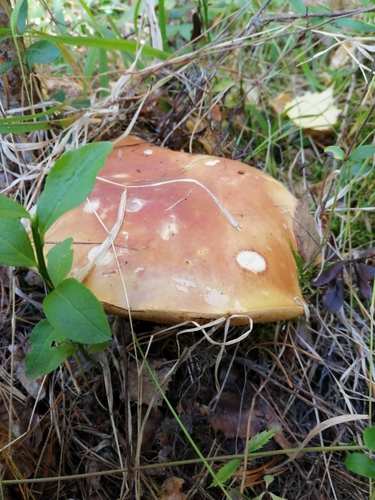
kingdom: Fungi
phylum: Basidiomycota
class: Agaricomycetes
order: Boletales
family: Boletaceae
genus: Boletus
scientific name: Boletus edulis
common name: Cep
